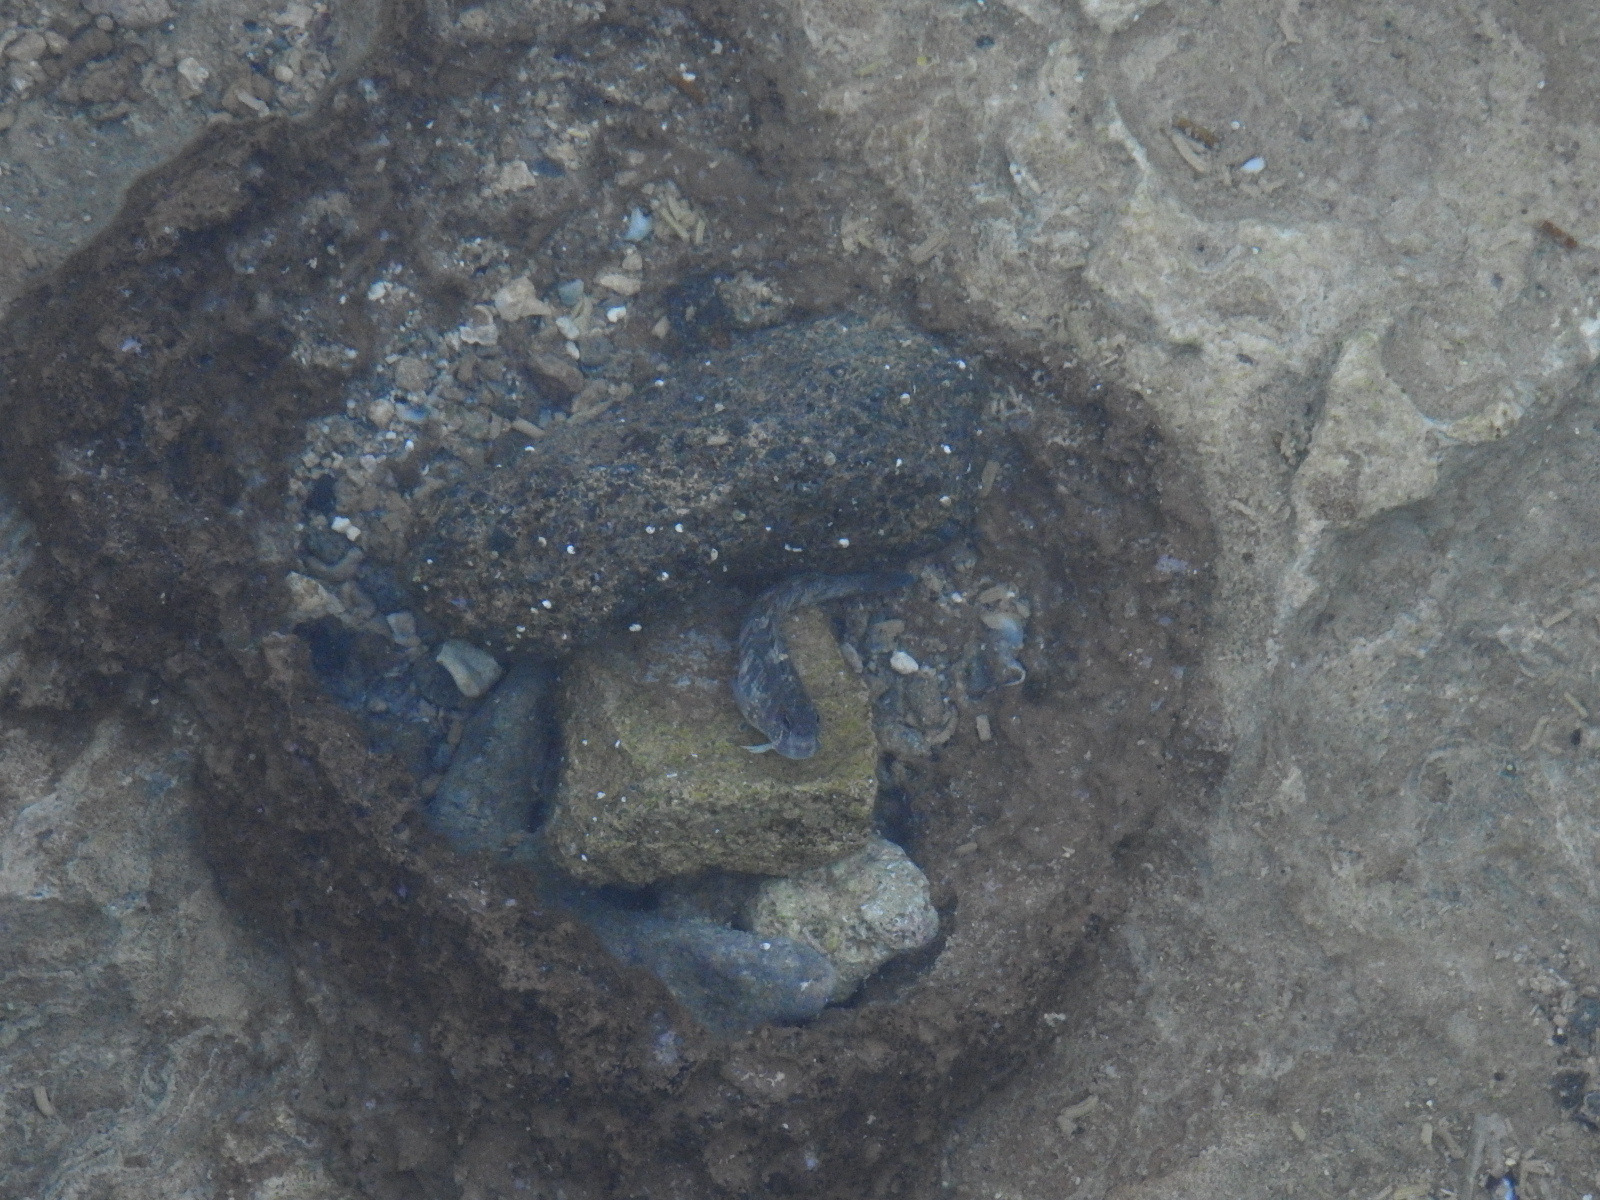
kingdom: Animalia
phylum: Chordata
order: Perciformes
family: Blenniidae
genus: Istiblennius
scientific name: Istiblennius zebra
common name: Zebra blenny
